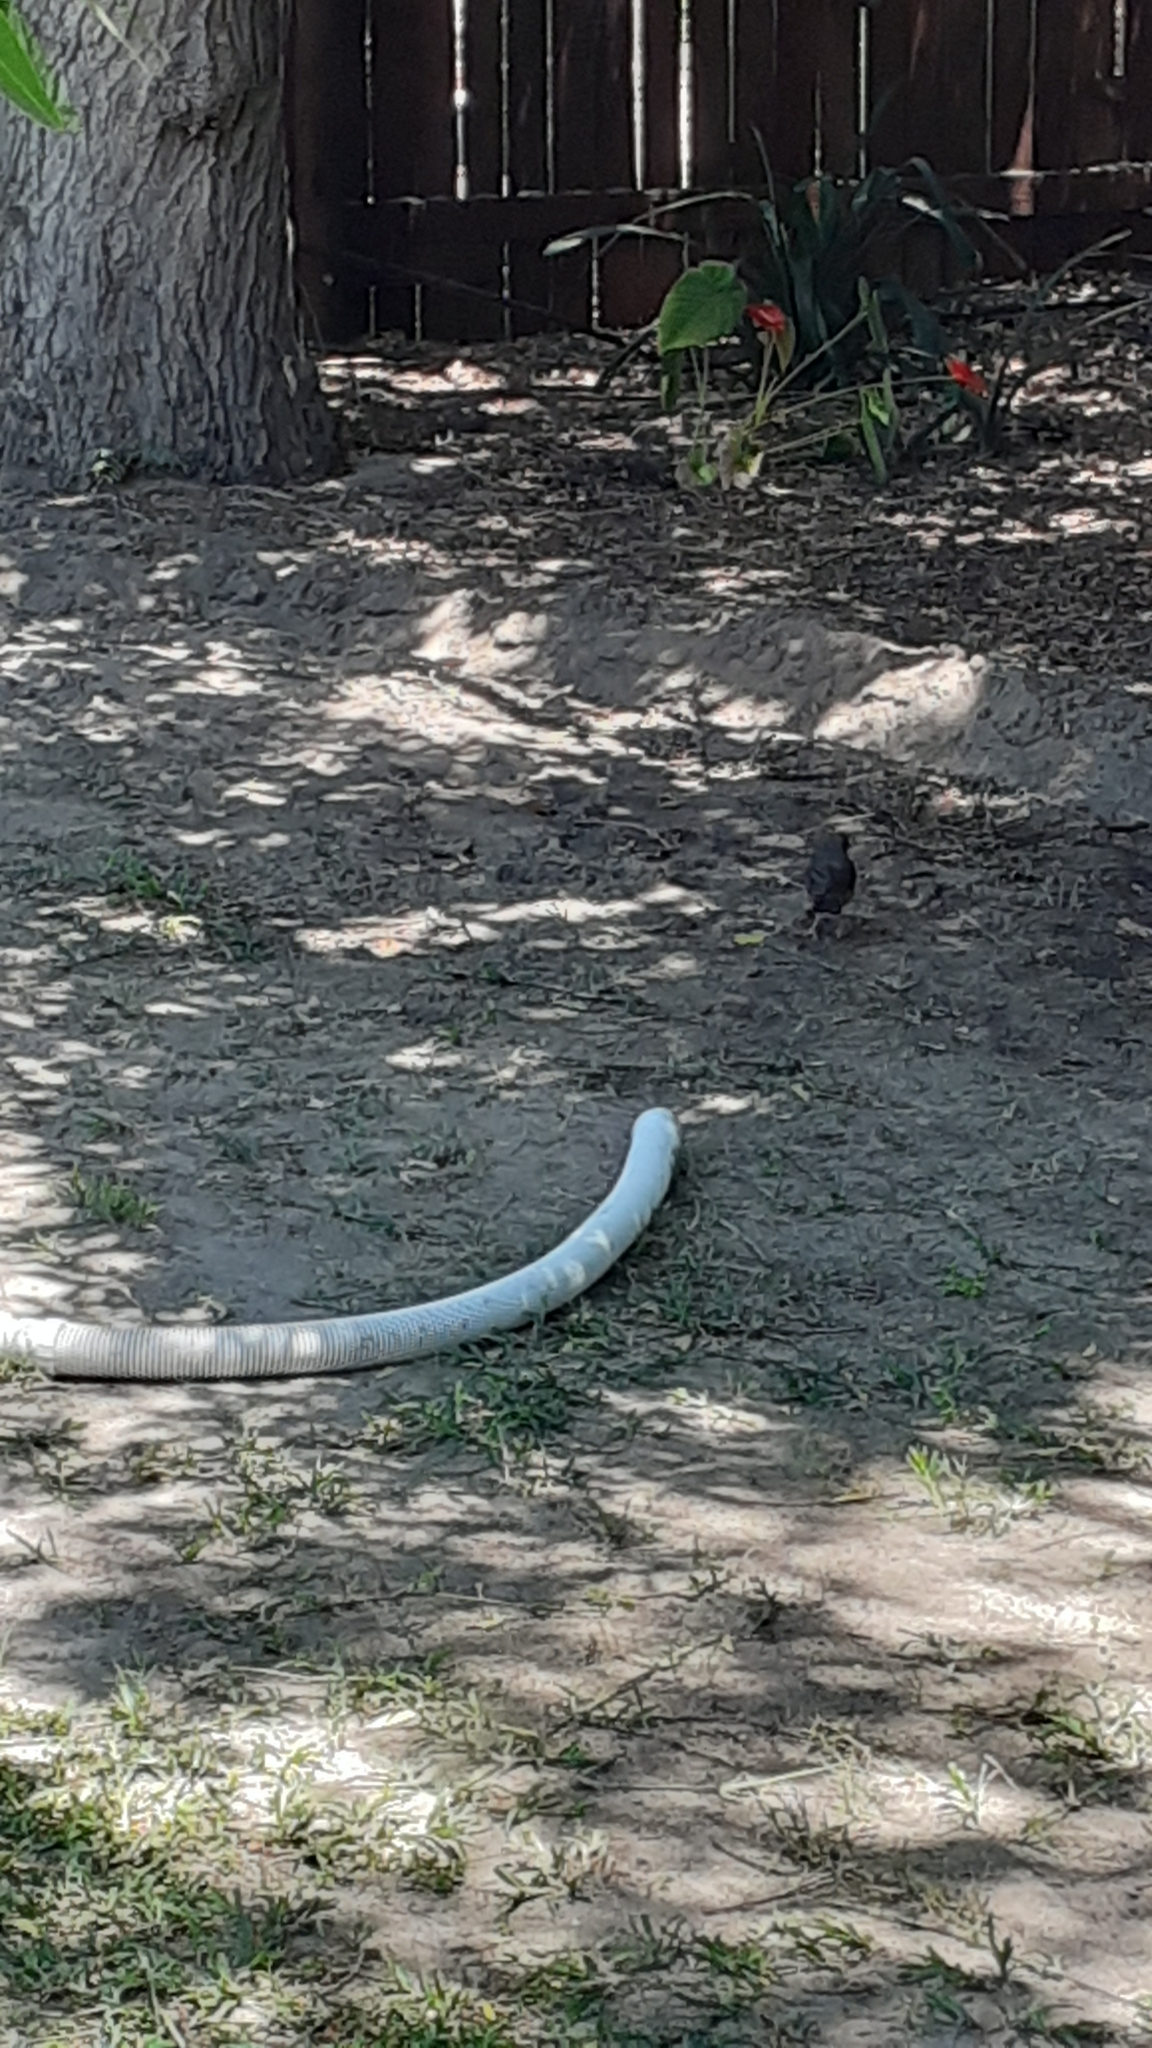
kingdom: Animalia
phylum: Chordata
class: Aves
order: Passeriformes
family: Turdidae
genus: Turdus
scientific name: Turdus olivaceus
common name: Olive thrush
